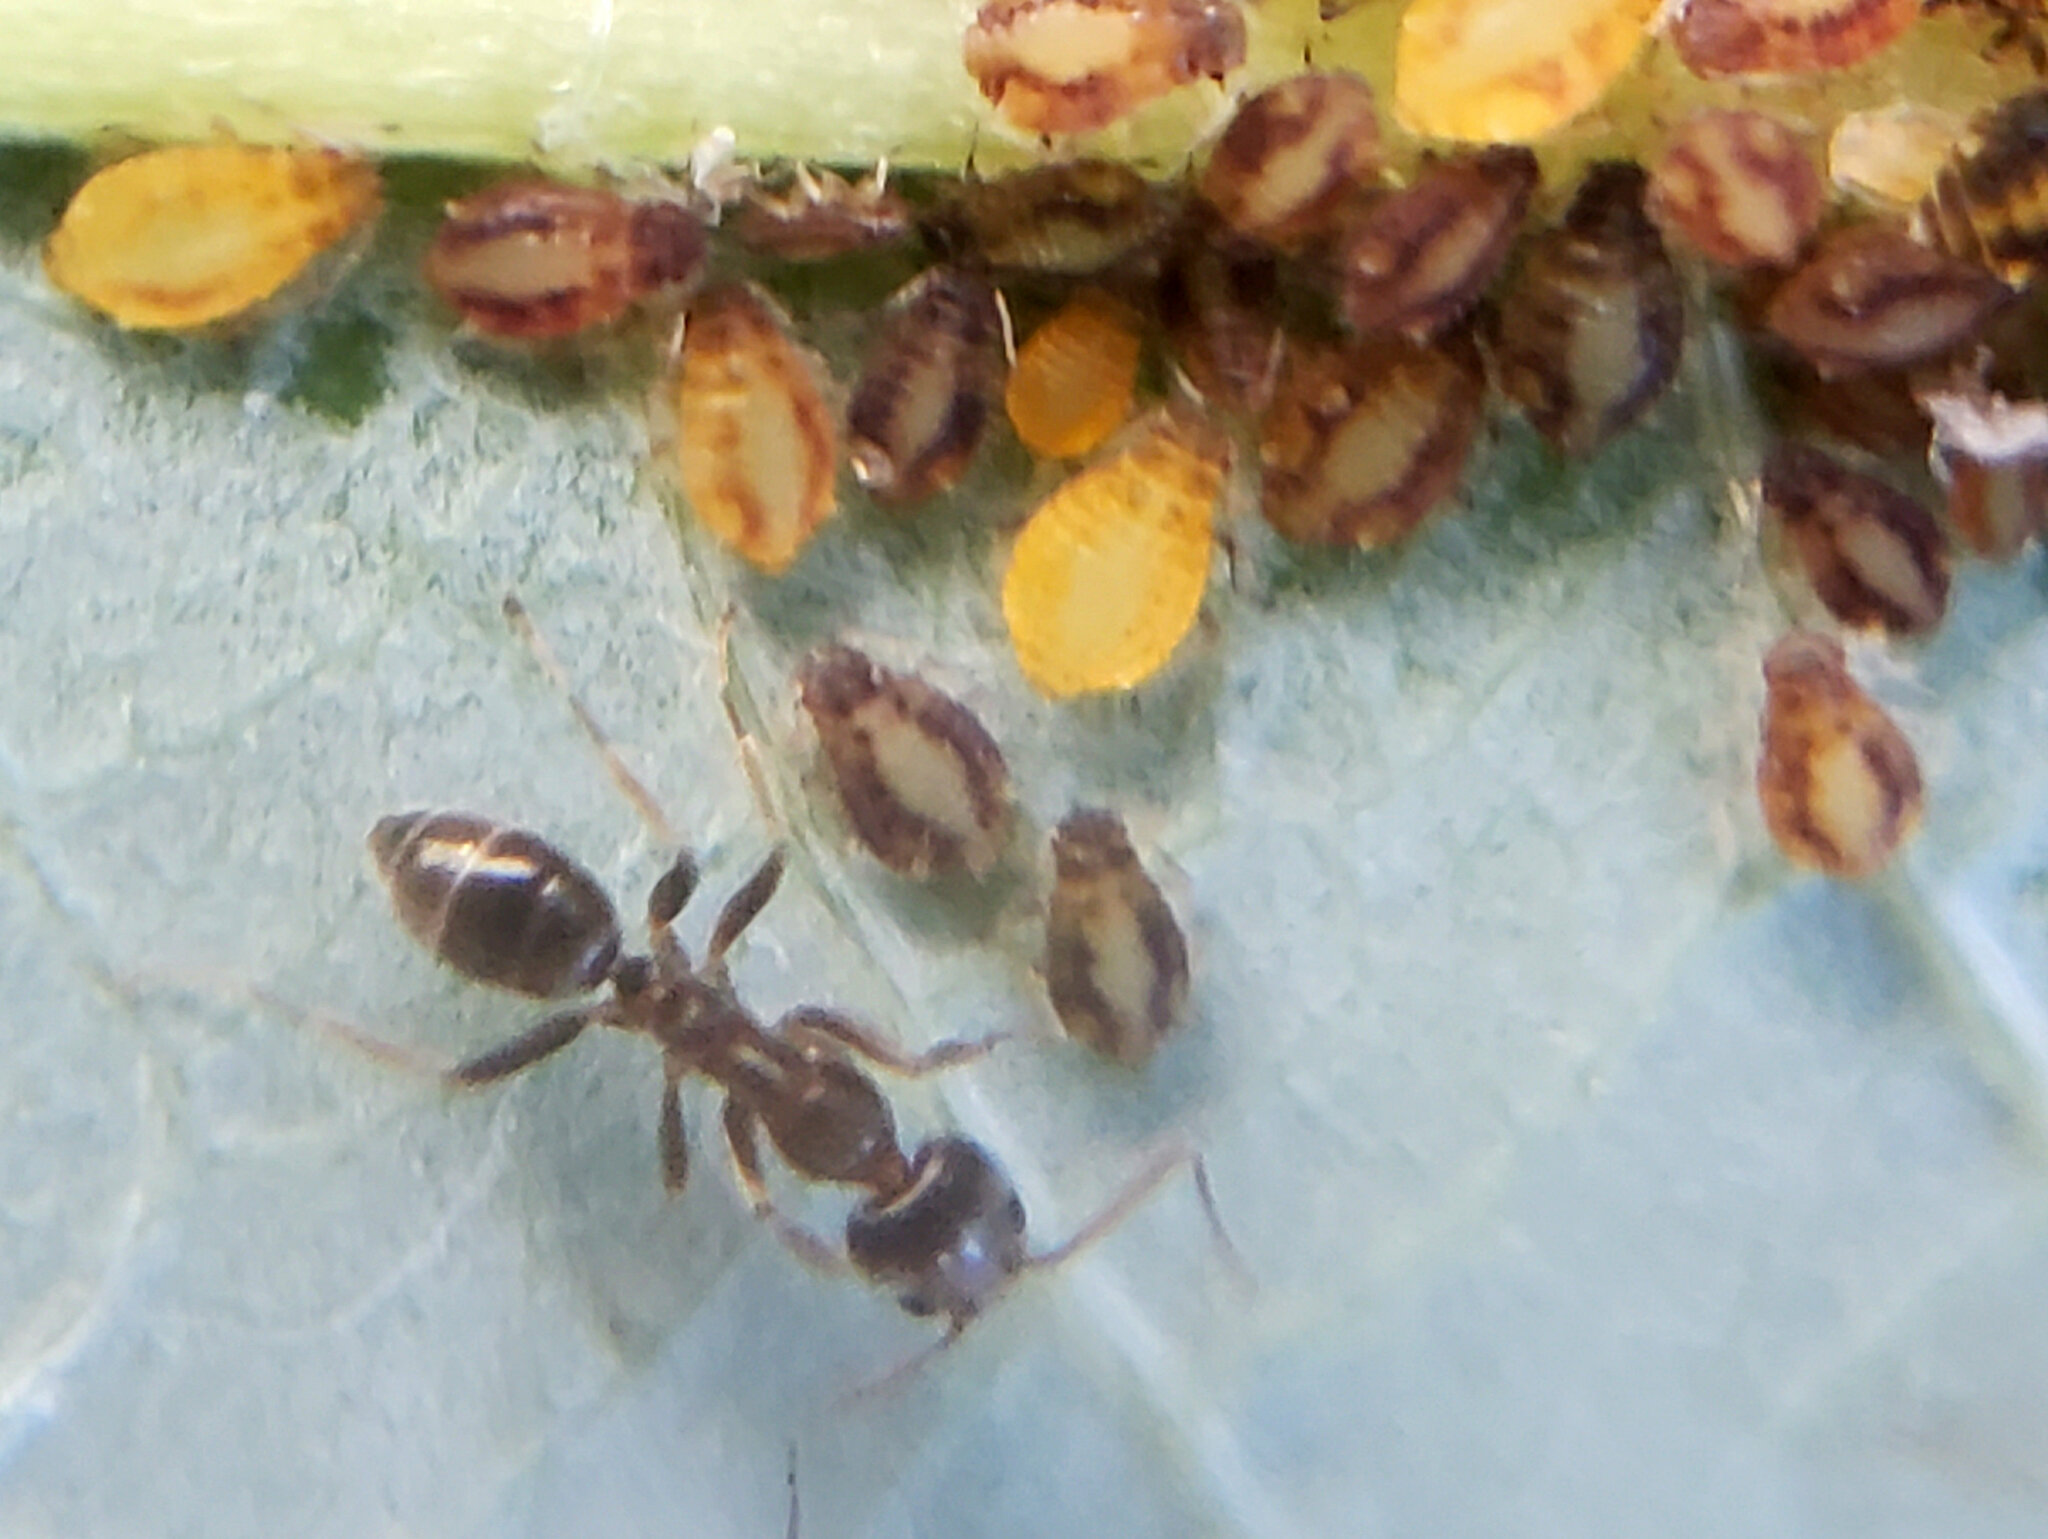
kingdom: Animalia
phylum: Arthropoda
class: Insecta
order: Hymenoptera
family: Formicidae
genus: Linepithema
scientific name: Linepithema humile
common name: Argentine ant
